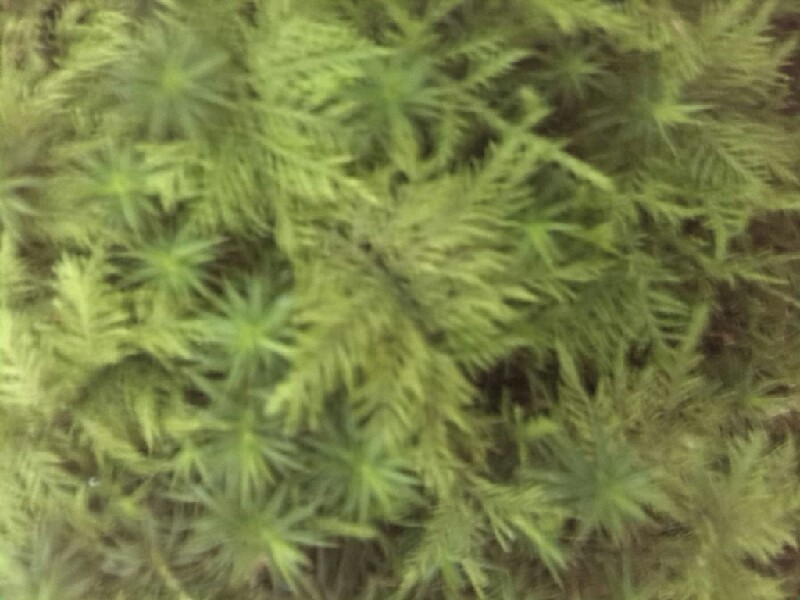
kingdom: Plantae
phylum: Bryophyta
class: Bryopsida
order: Hypnales
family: Thuidiaceae
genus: Thuidium
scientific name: Thuidium tamariscinum
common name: Common tamarisk-moss
